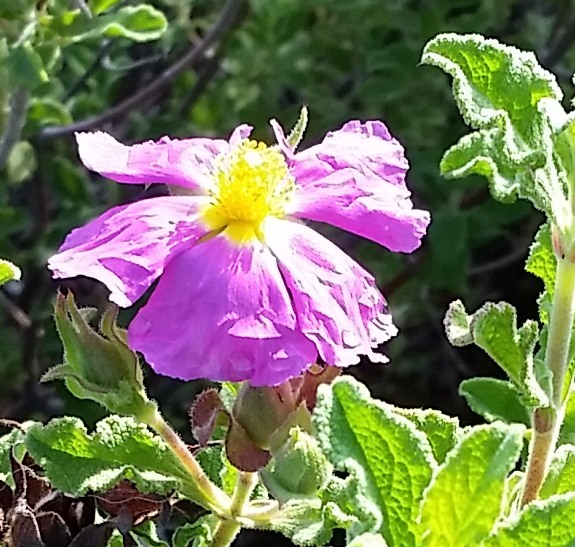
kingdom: Plantae
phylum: Tracheophyta
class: Magnoliopsida
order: Malvales
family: Cistaceae
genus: Cistus
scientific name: Cistus creticus
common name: Cretan rockrose
